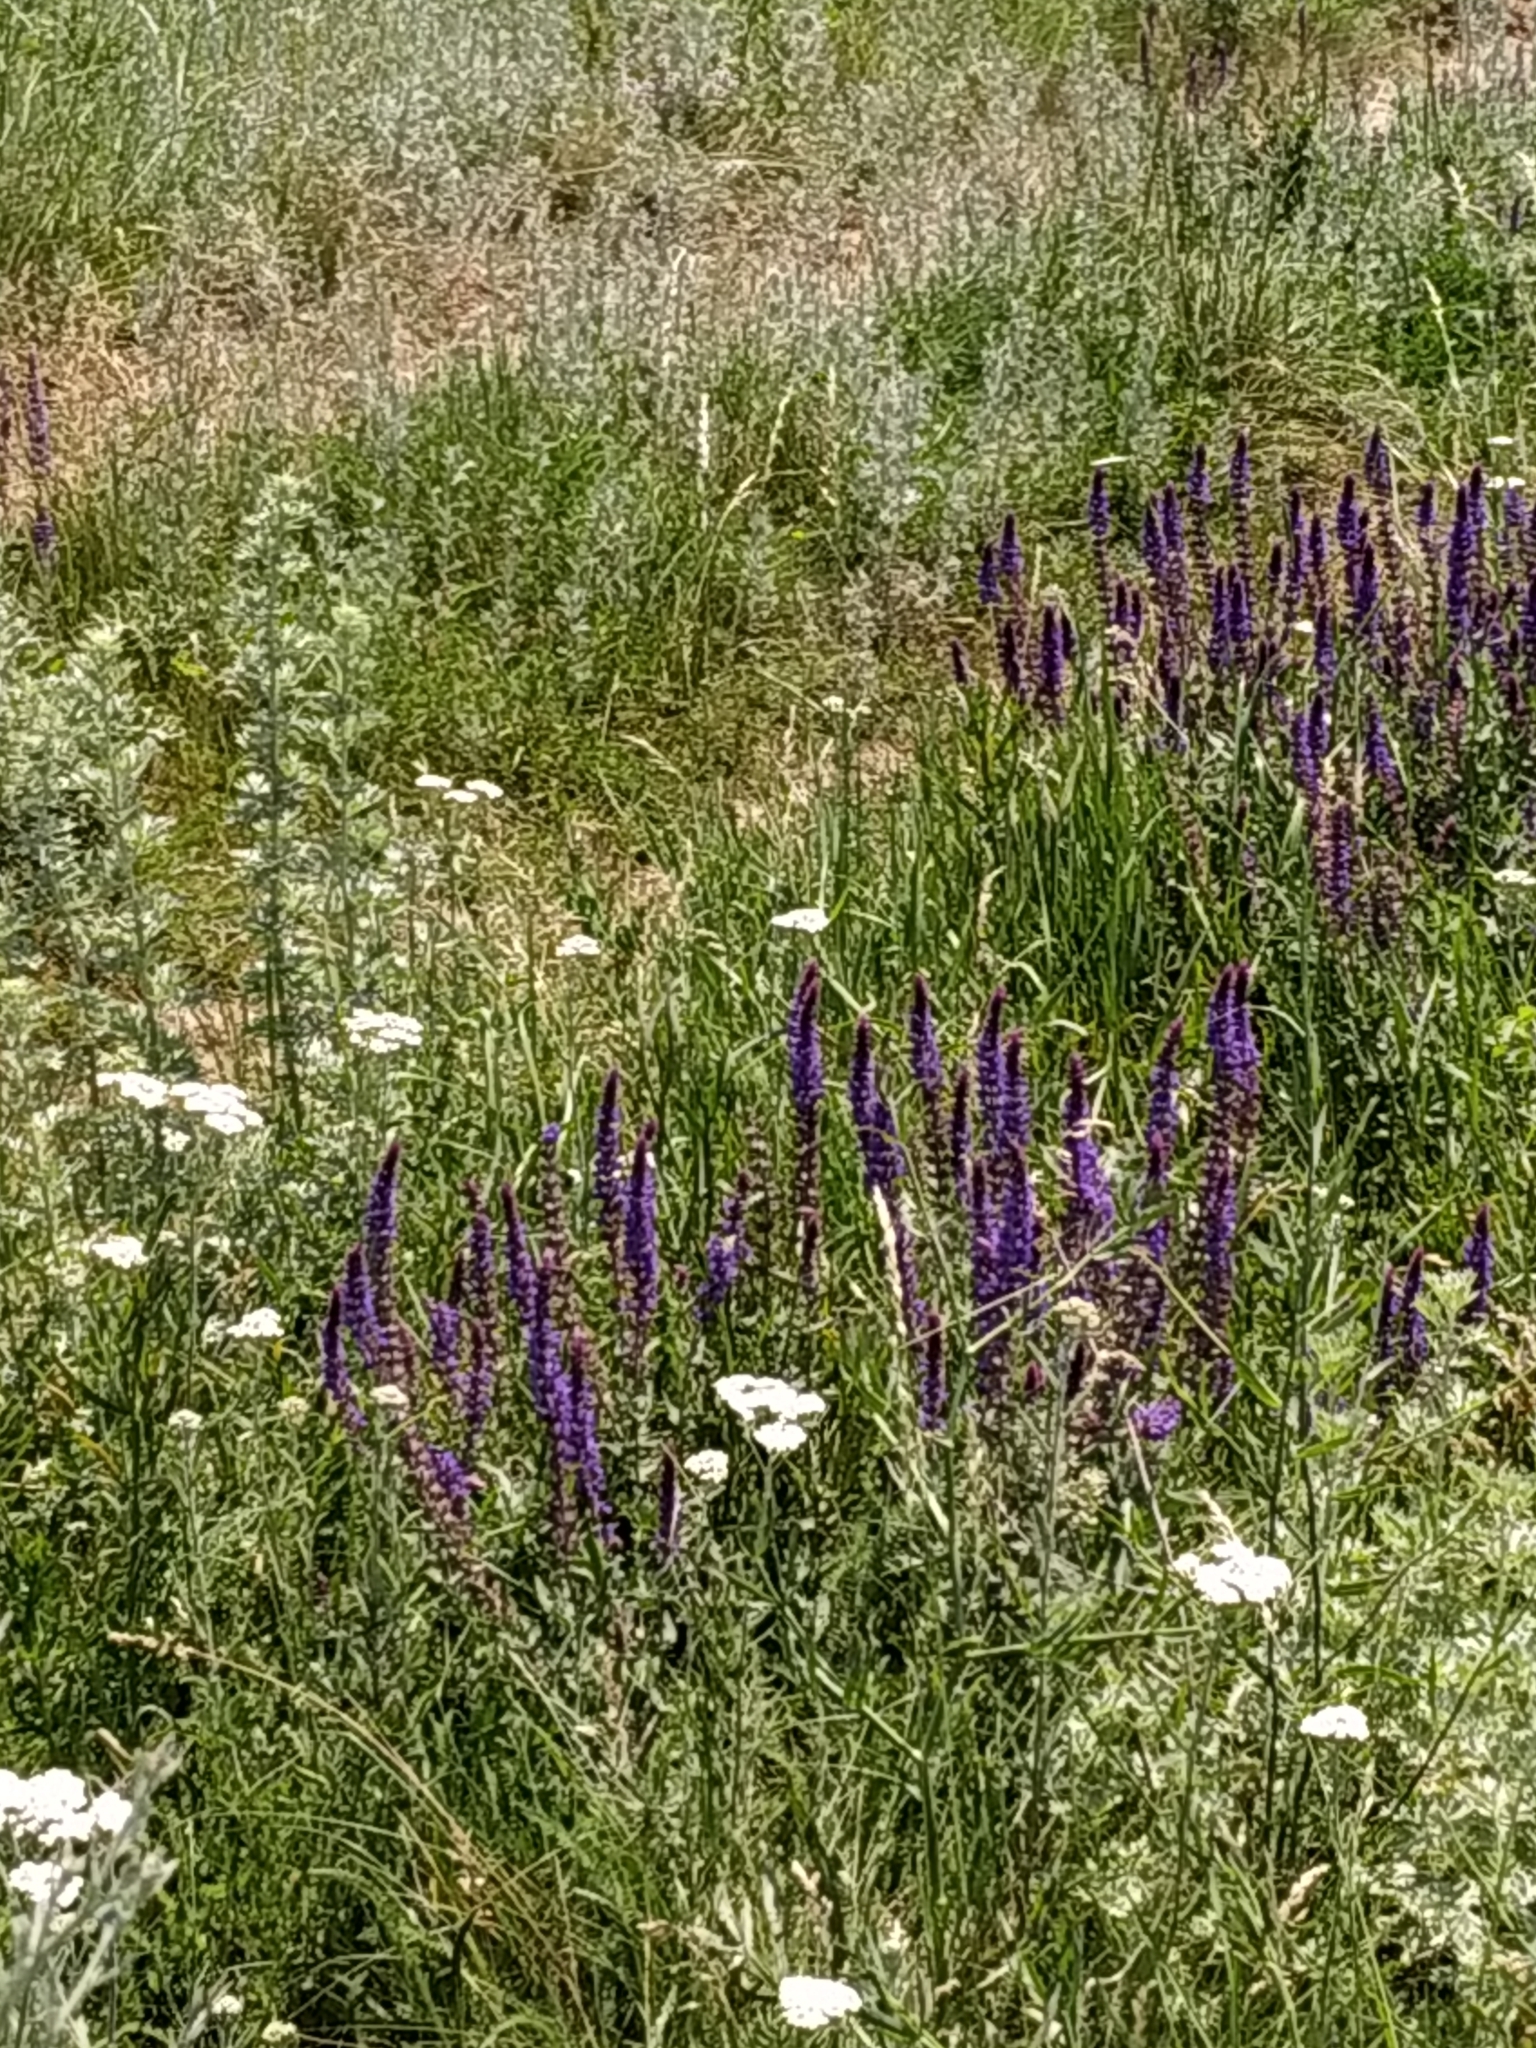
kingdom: Plantae
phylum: Tracheophyta
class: Magnoliopsida
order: Lamiales
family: Lamiaceae
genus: Salvia
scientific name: Salvia nemorosa
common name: Balkan clary
